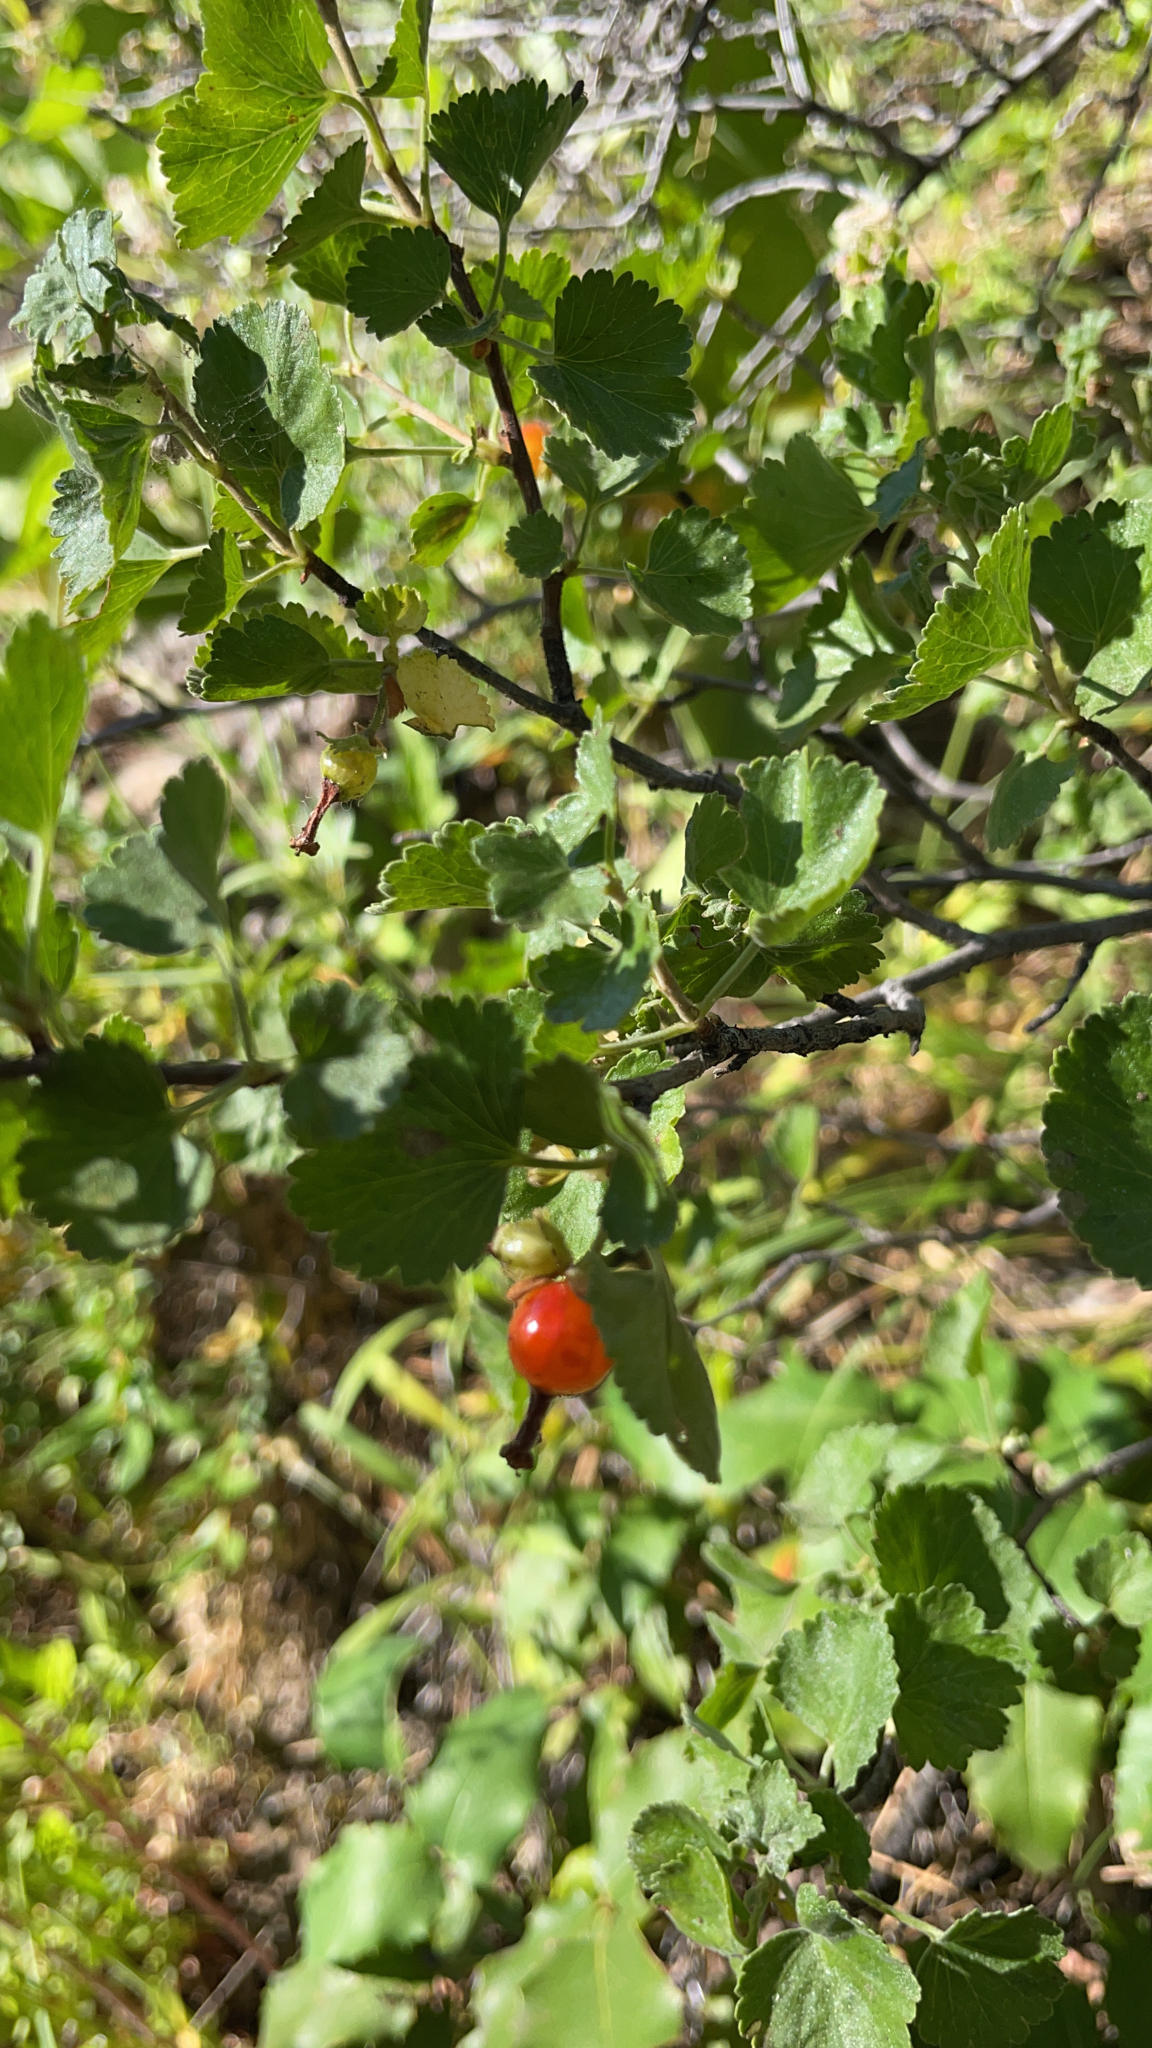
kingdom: Plantae
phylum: Tracheophyta
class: Magnoliopsida
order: Saxifragales
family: Grossulariaceae
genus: Ribes
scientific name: Ribes cereum
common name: Wax currant
